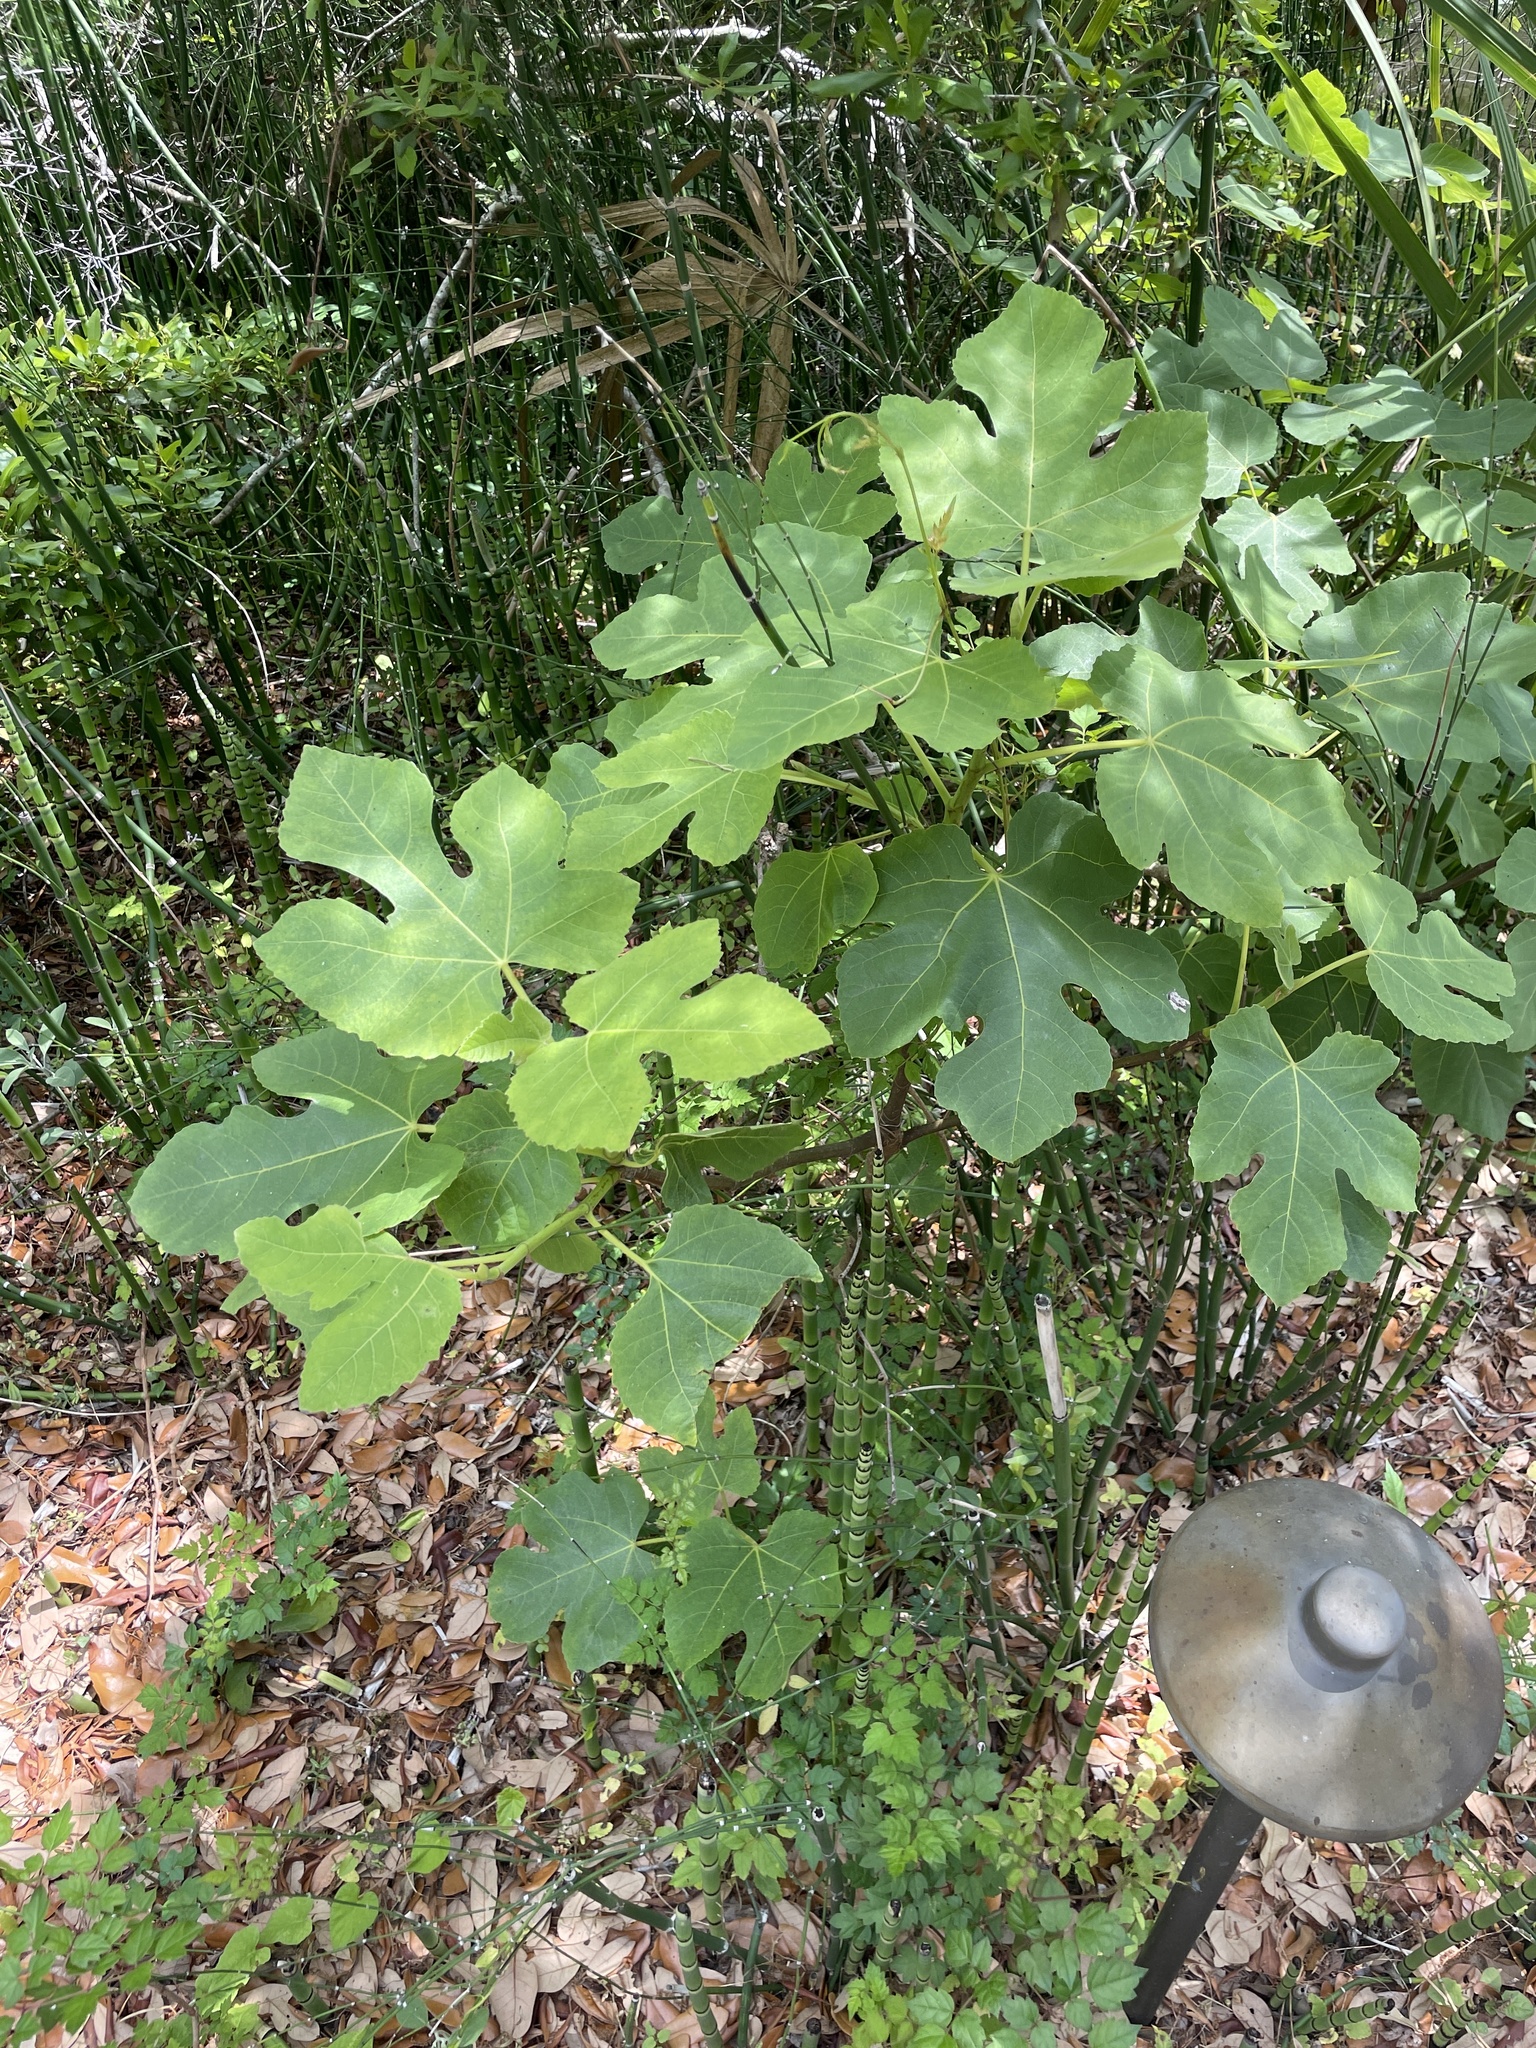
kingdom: Plantae
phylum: Tracheophyta
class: Magnoliopsida
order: Rosales
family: Moraceae
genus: Ficus
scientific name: Ficus carica
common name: Fig
